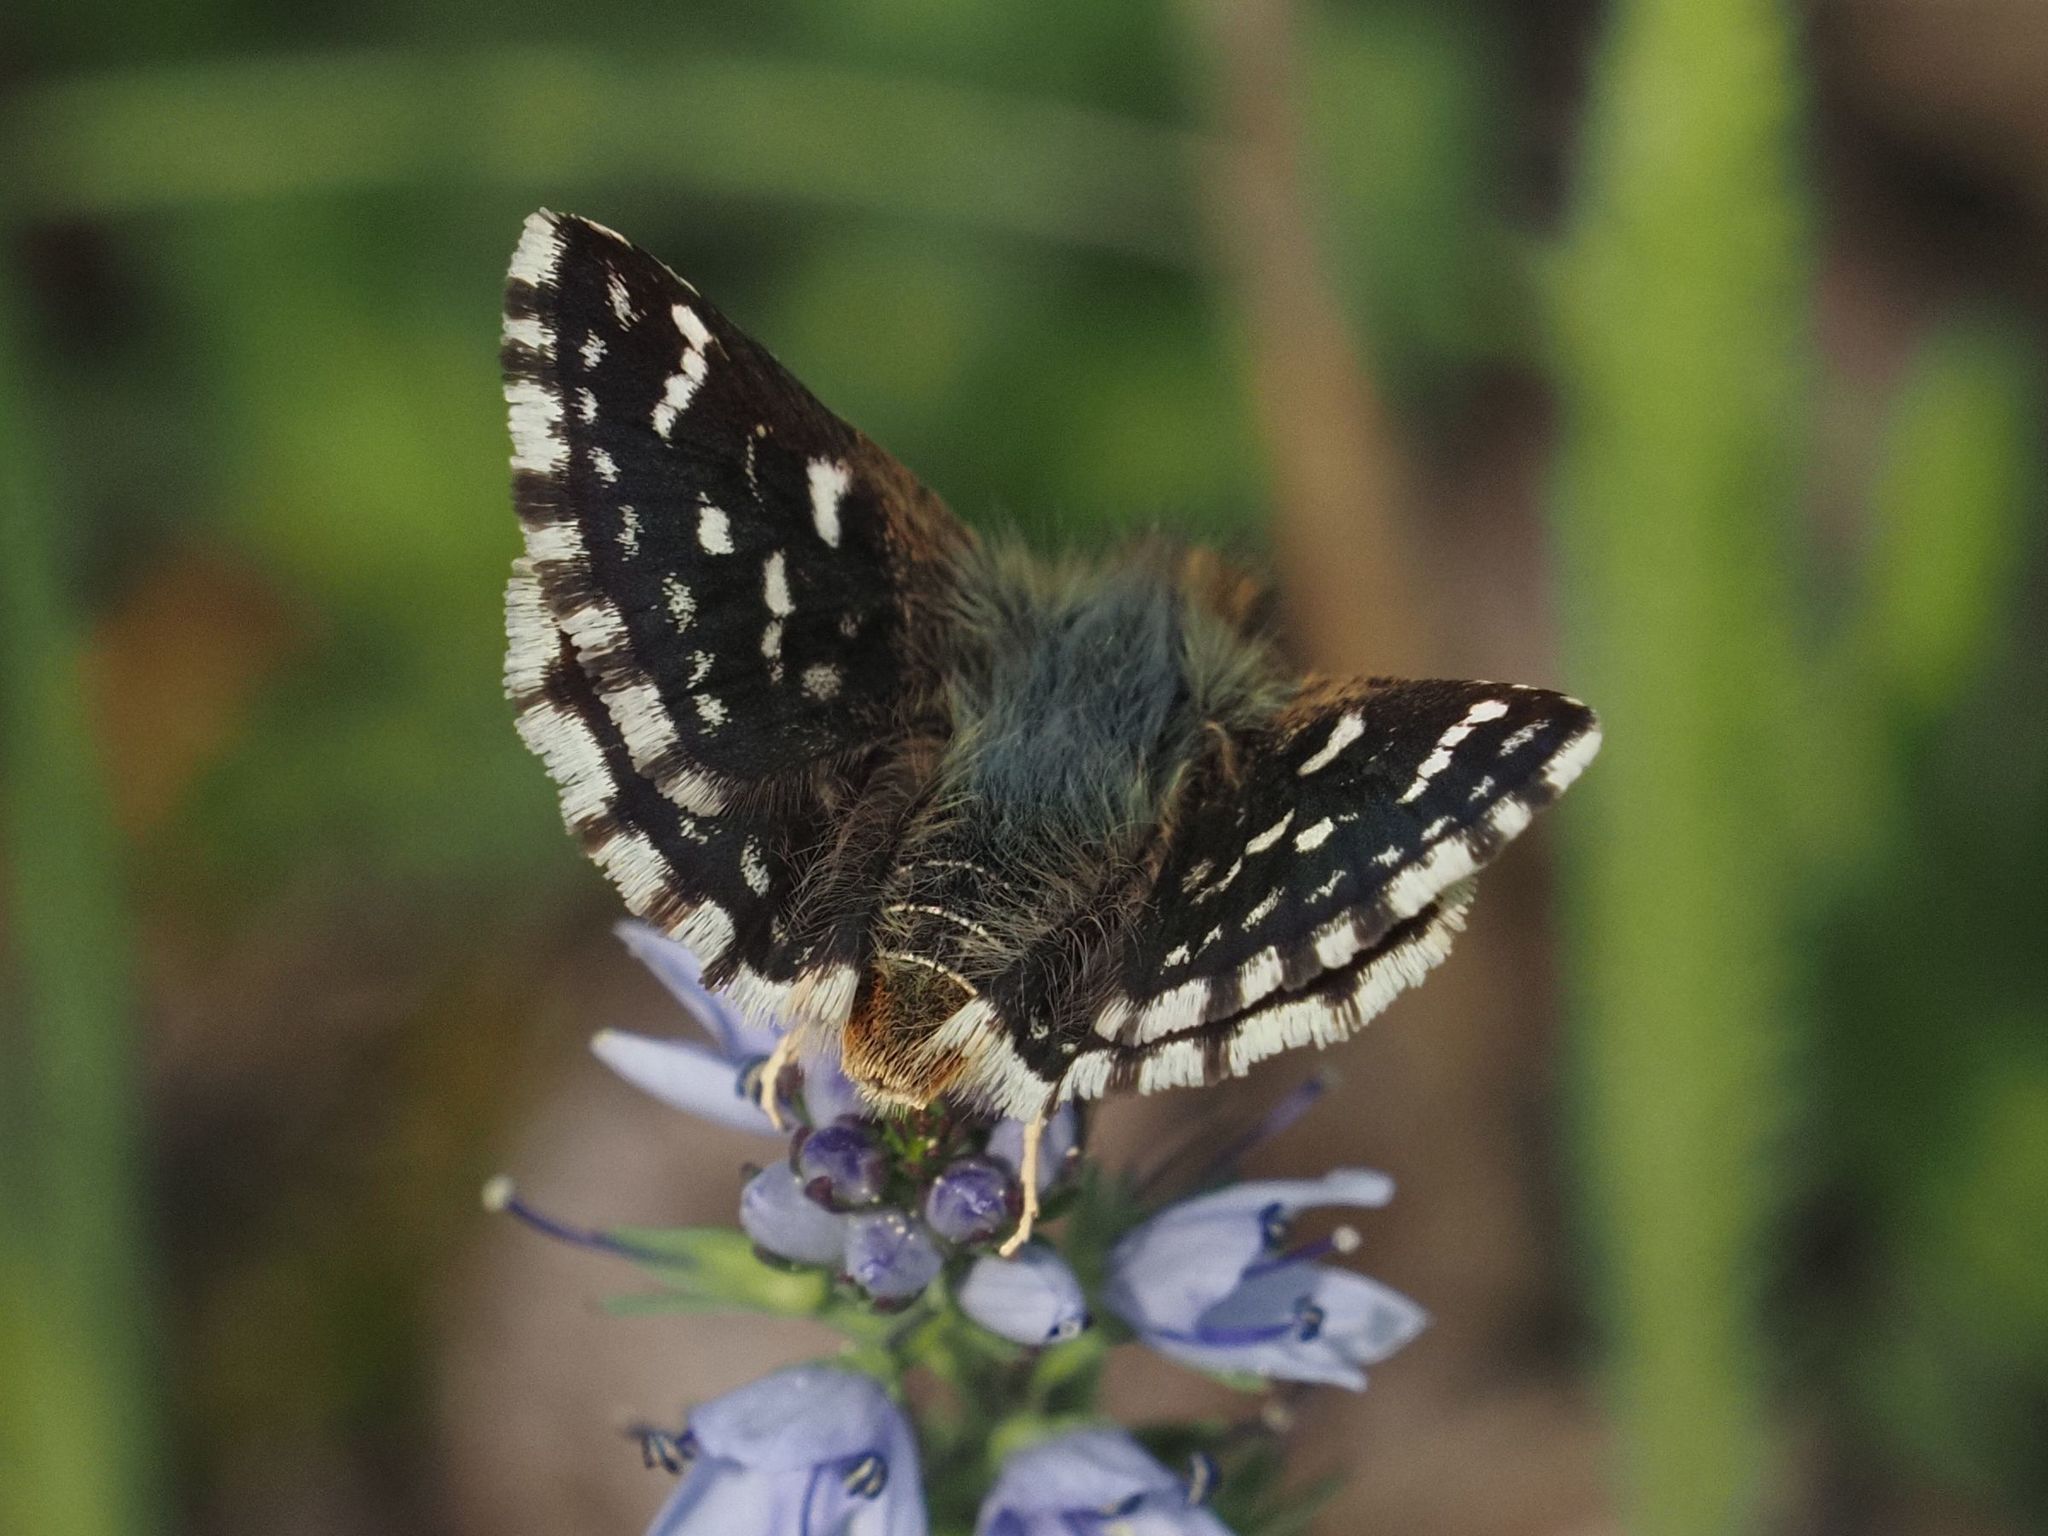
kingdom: Animalia
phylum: Arthropoda
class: Insecta
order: Lepidoptera
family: Hesperiidae
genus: Spialia
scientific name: Spialia sertorius
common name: Red underwing skipper
